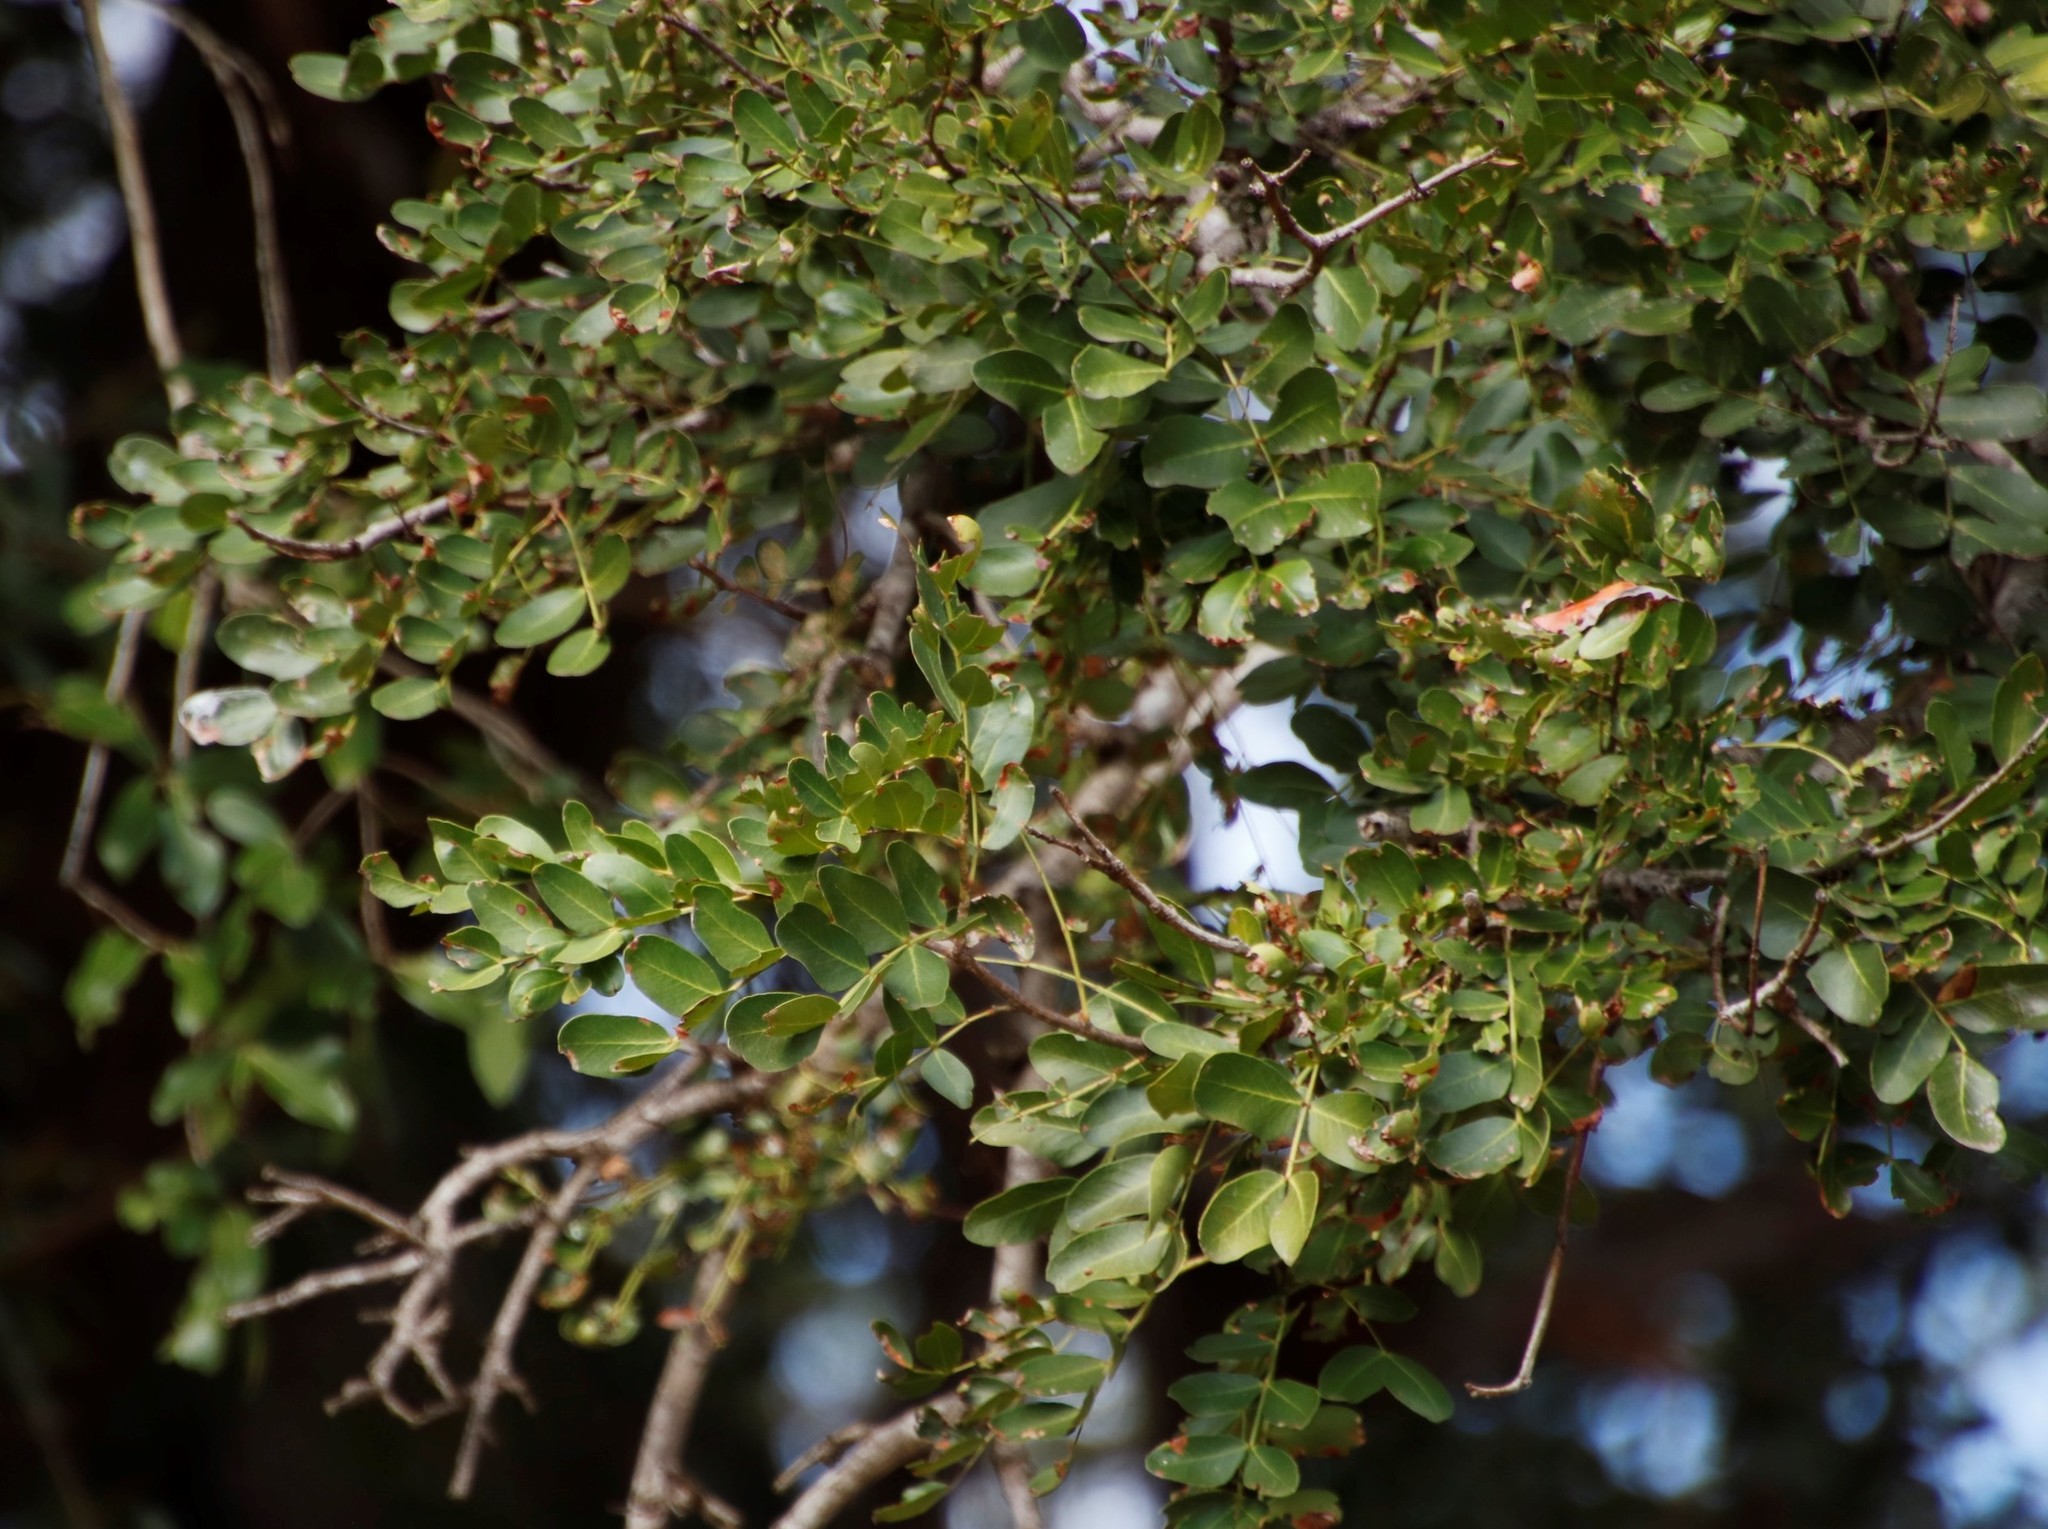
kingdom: Plantae
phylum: Tracheophyta
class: Magnoliopsida
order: Fabales
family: Fabaceae
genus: Schotia
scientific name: Schotia brachypetala
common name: Weeping boer-bean
